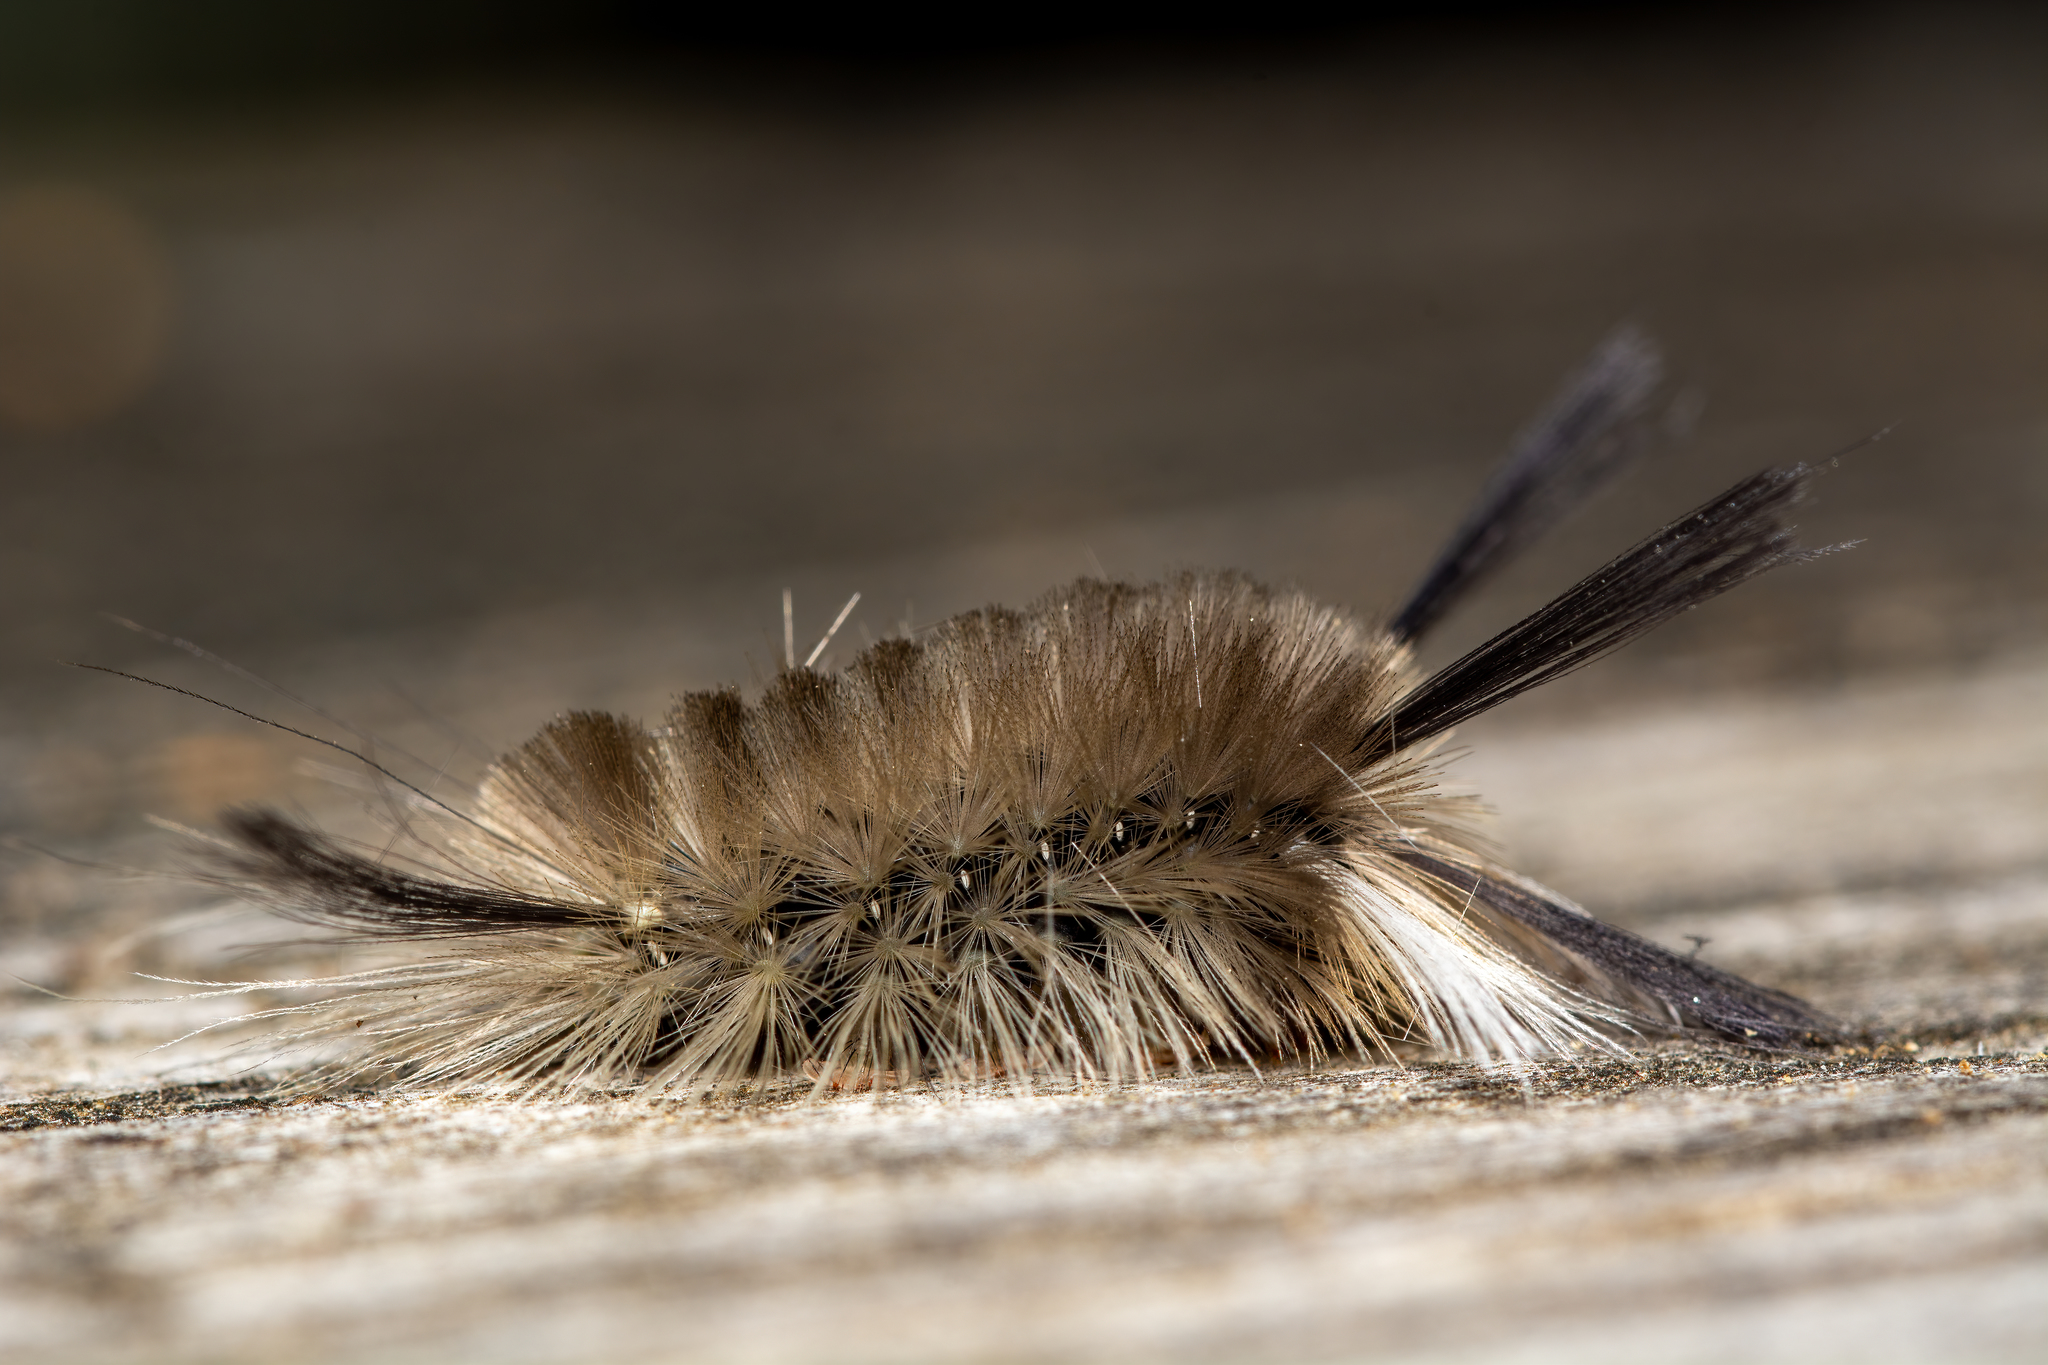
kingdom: Animalia
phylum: Arthropoda
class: Insecta
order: Lepidoptera
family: Erebidae
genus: Halysidota
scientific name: Halysidota tessellaris
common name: Banded tussock moth
